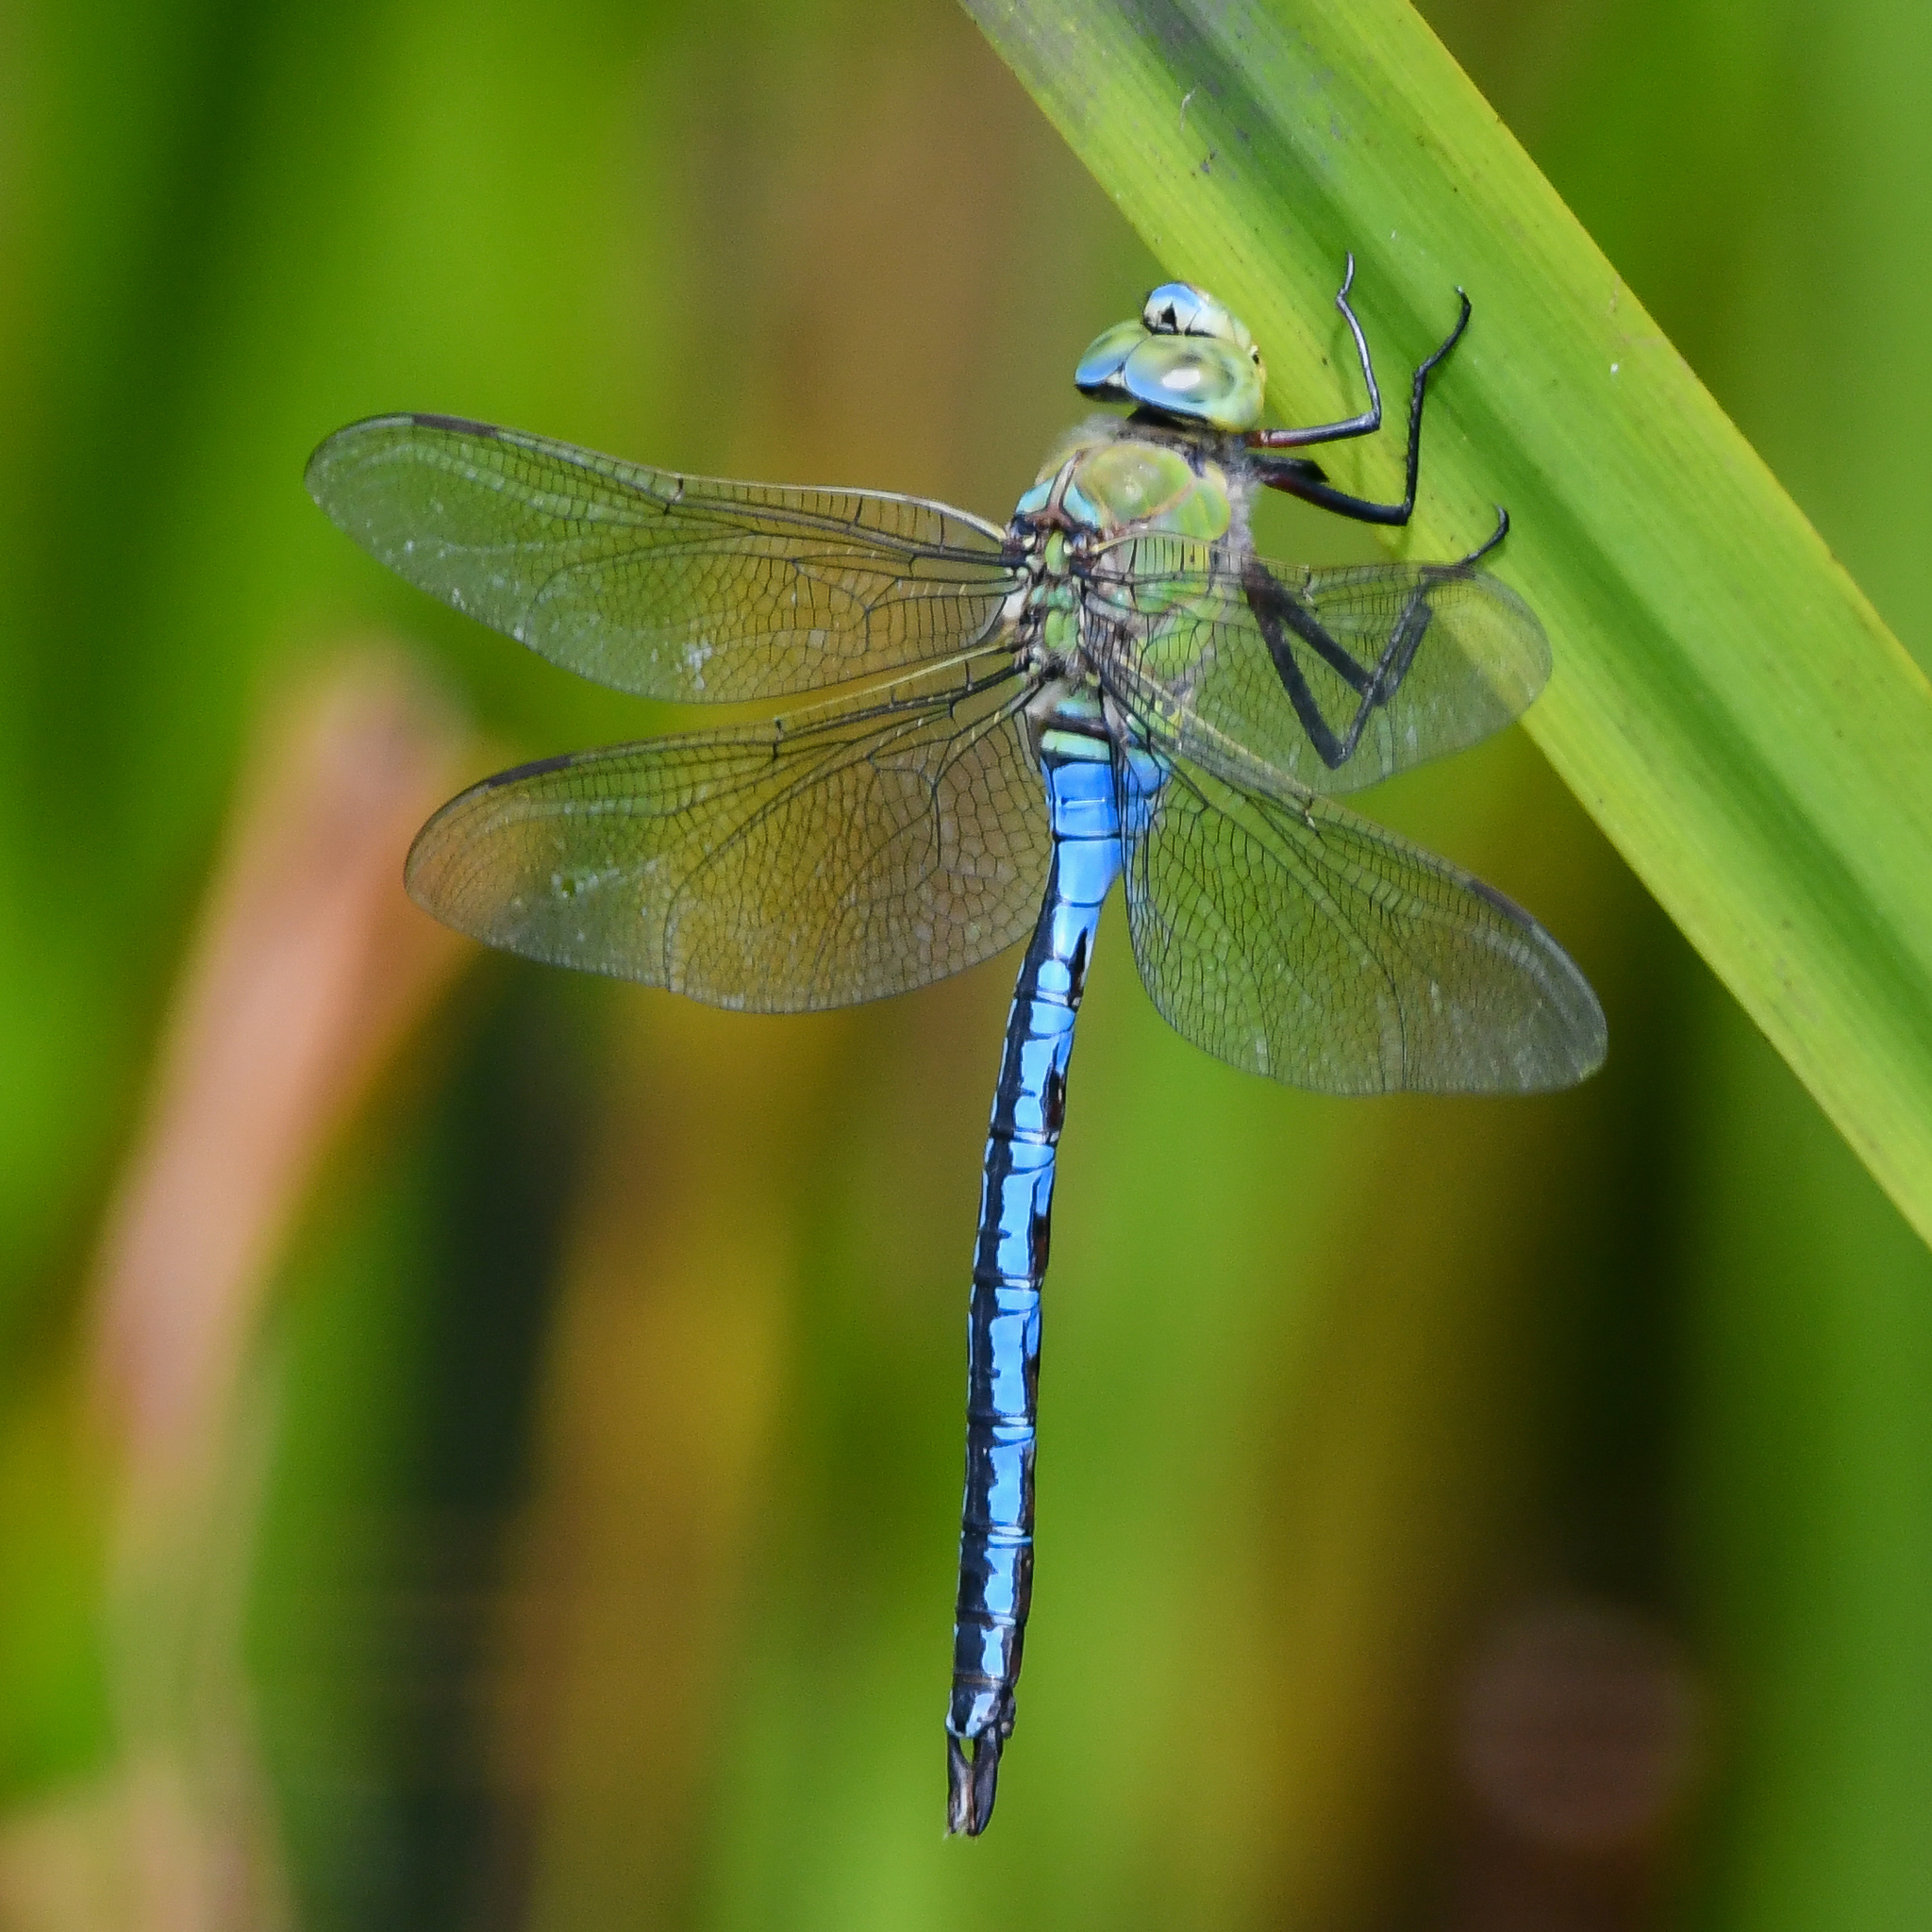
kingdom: Animalia
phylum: Arthropoda
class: Insecta
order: Odonata
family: Aeshnidae
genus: Anax
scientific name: Anax imperator
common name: Emperor dragonfly
